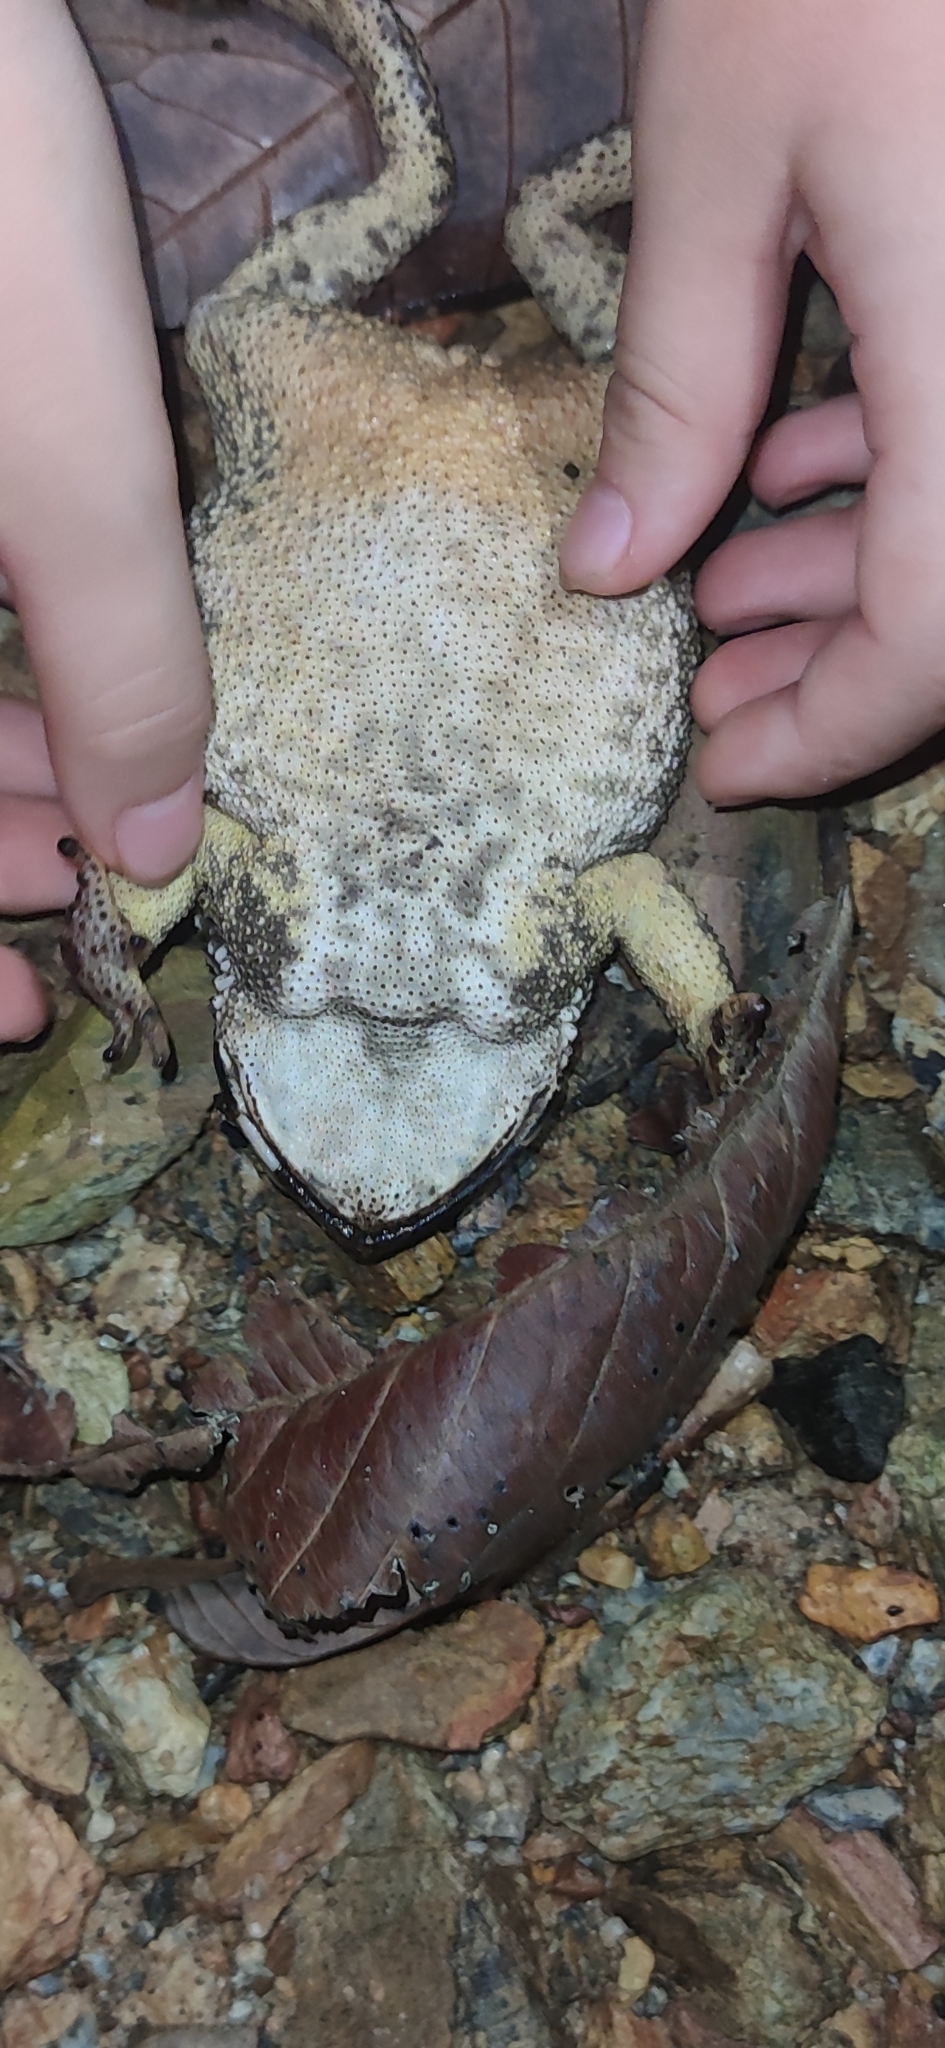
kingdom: Animalia
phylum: Chordata
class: Amphibia
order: Anura
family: Bufonidae
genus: Duttaphrynus
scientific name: Duttaphrynus melanostictus
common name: Common sunda toad
